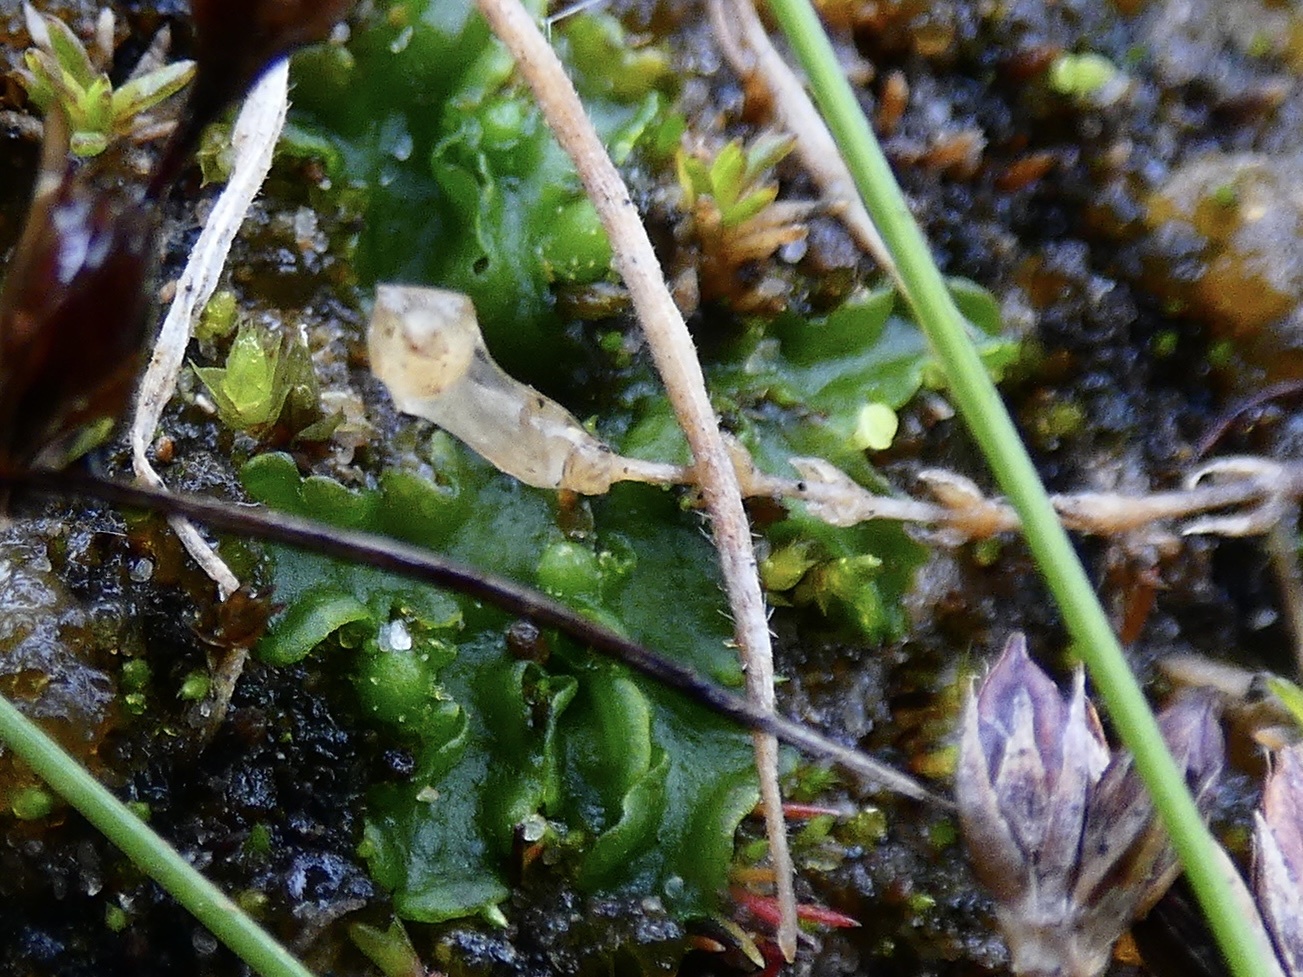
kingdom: Plantae
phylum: Marchantiophyta
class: Jungermanniopsida
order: Metzgeriales
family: Aneuraceae
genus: Aneura
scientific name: Aneura pinguis
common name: Common greasewort
